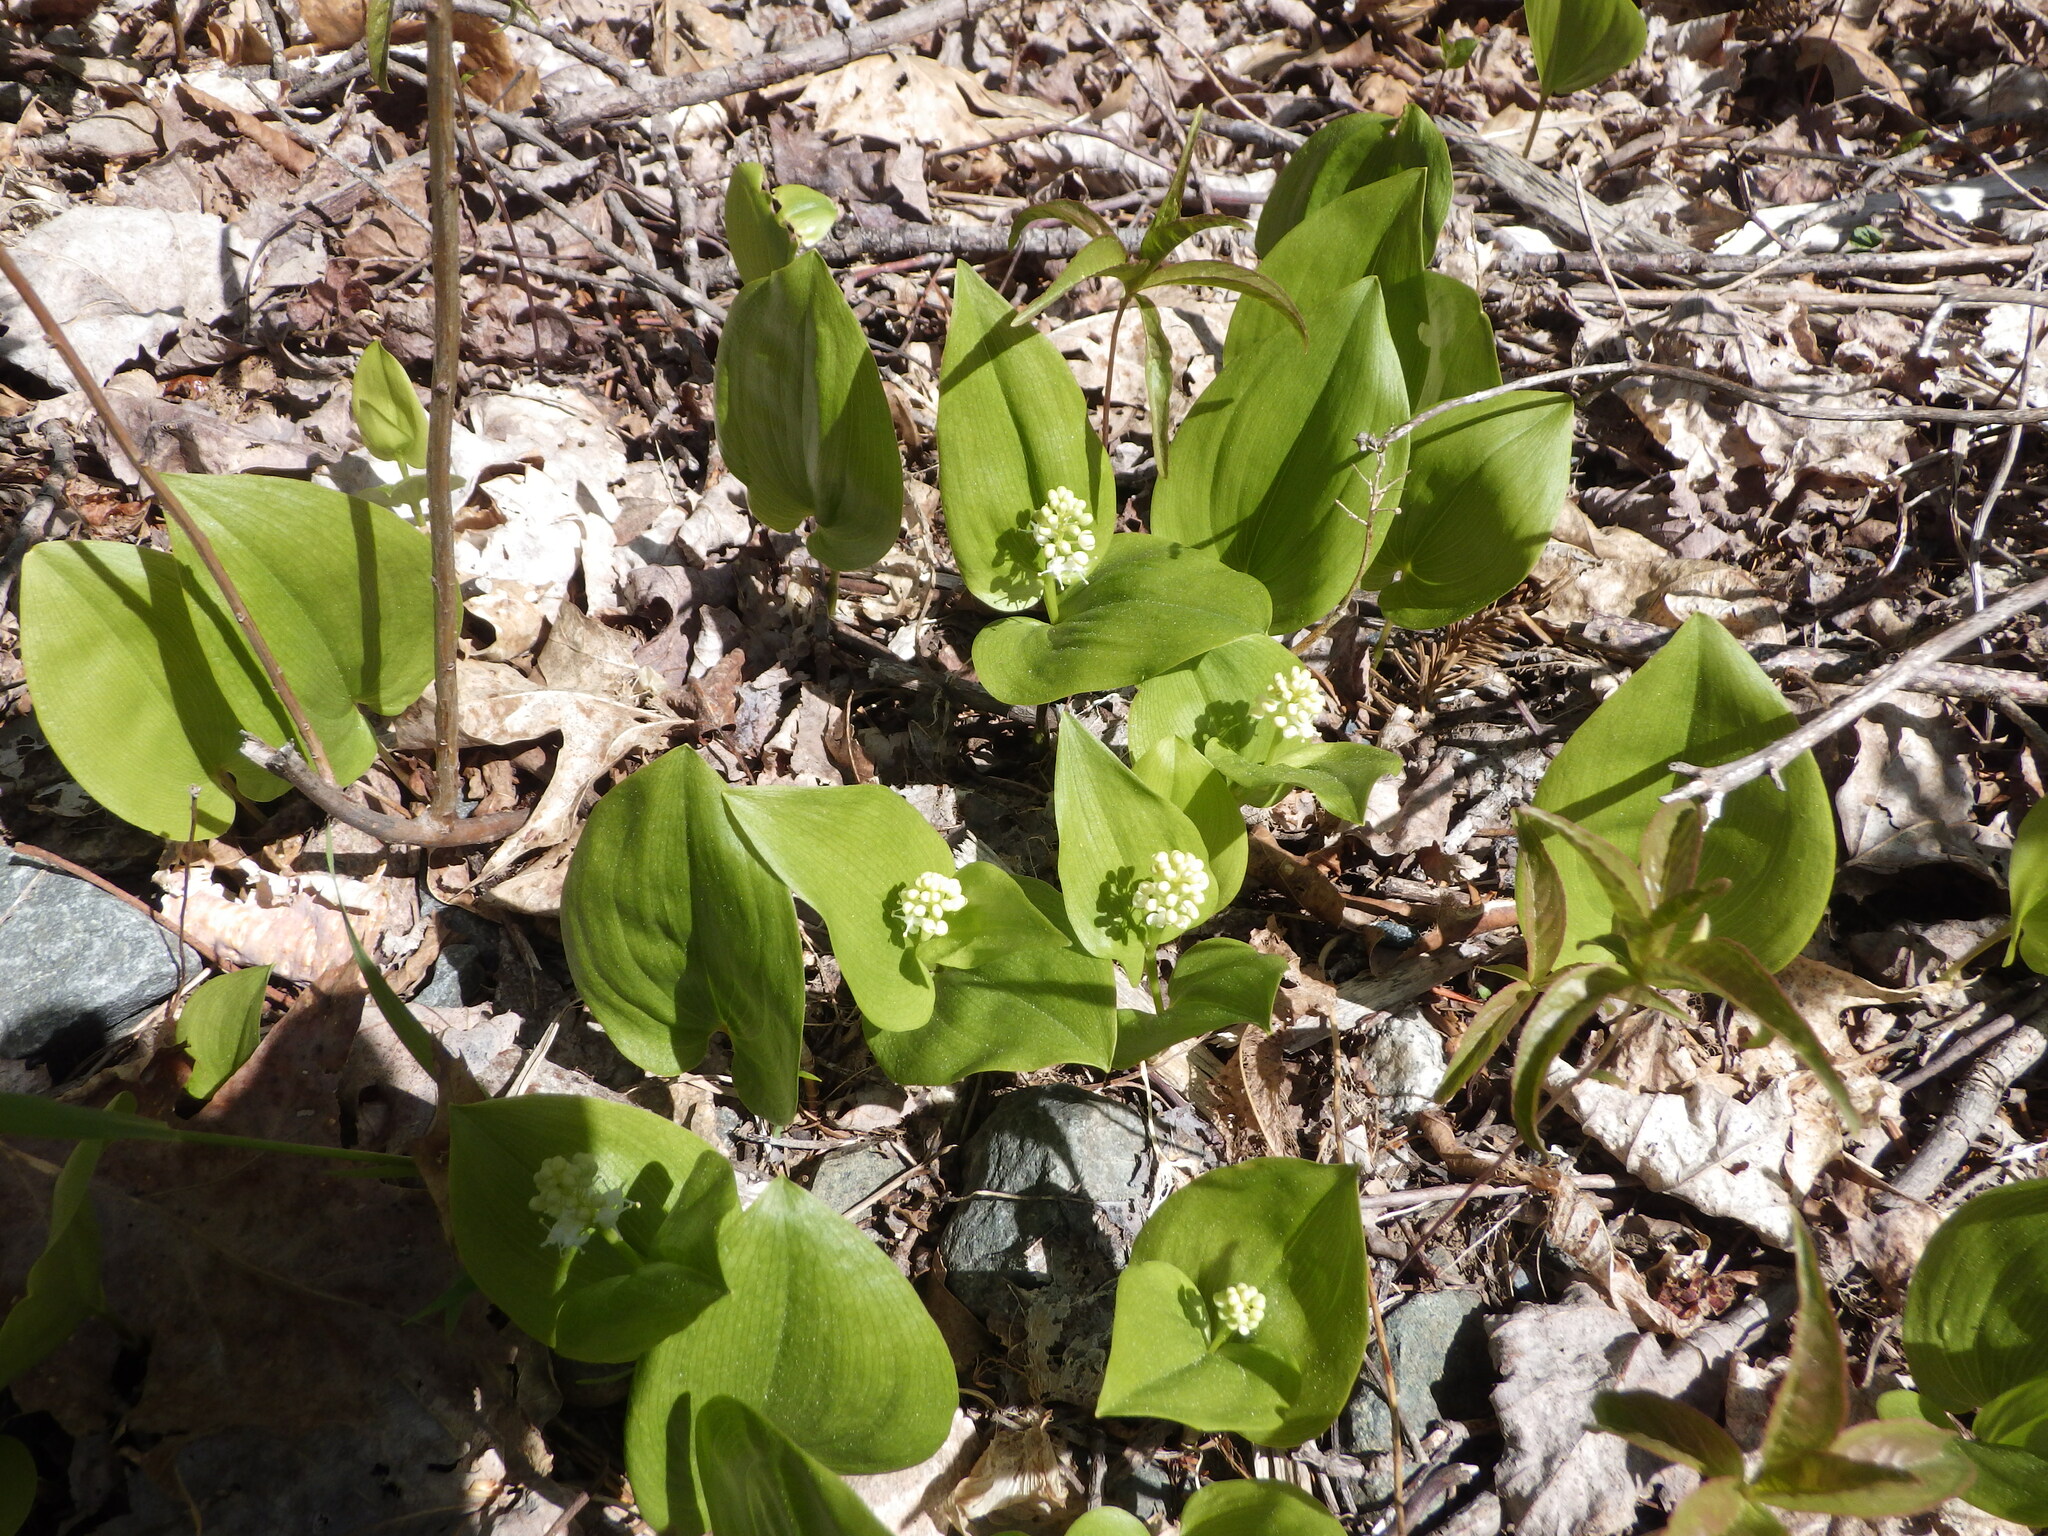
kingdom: Plantae
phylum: Tracheophyta
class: Liliopsida
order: Asparagales
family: Asparagaceae
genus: Maianthemum
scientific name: Maianthemum canadense
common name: False lily-of-the-valley
